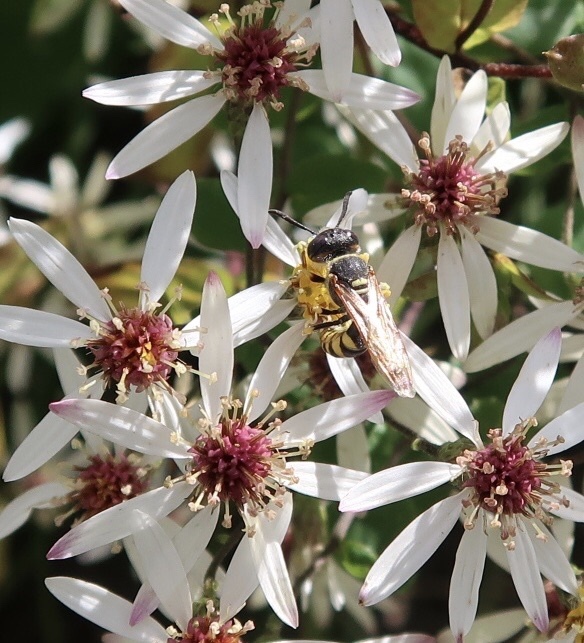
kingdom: Animalia
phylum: Arthropoda
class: Insecta
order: Hymenoptera
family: Crabronidae
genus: Philanthus
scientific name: Philanthus triangulum
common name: Bee wolf
